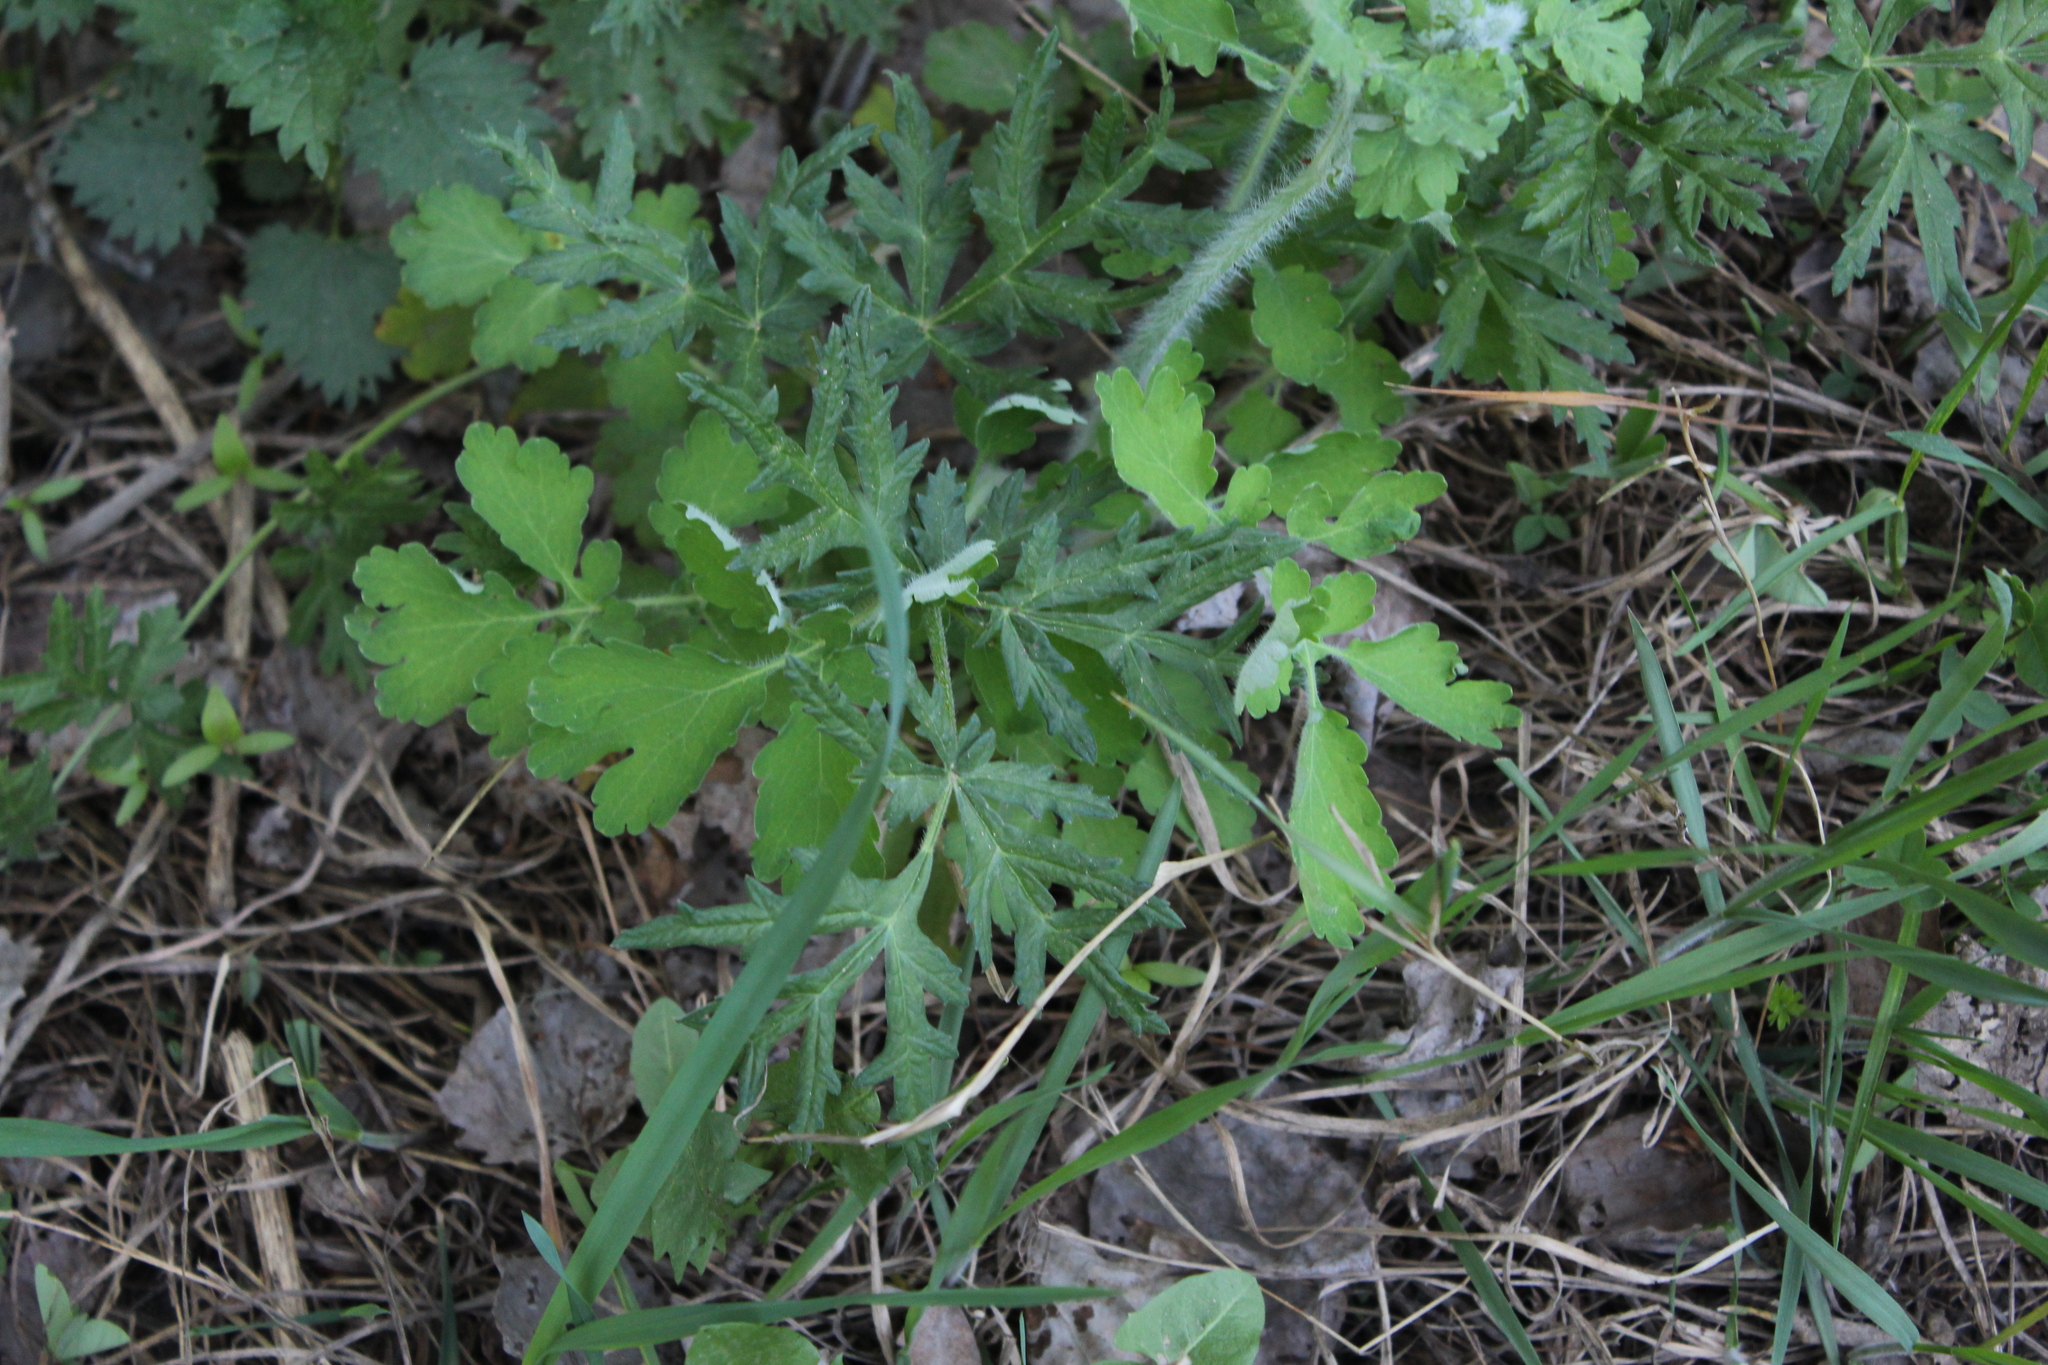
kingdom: Plantae
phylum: Tracheophyta
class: Magnoliopsida
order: Apiales
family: Apiaceae
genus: Heracleum
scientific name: Heracleum sphondylium
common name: Hogweed
